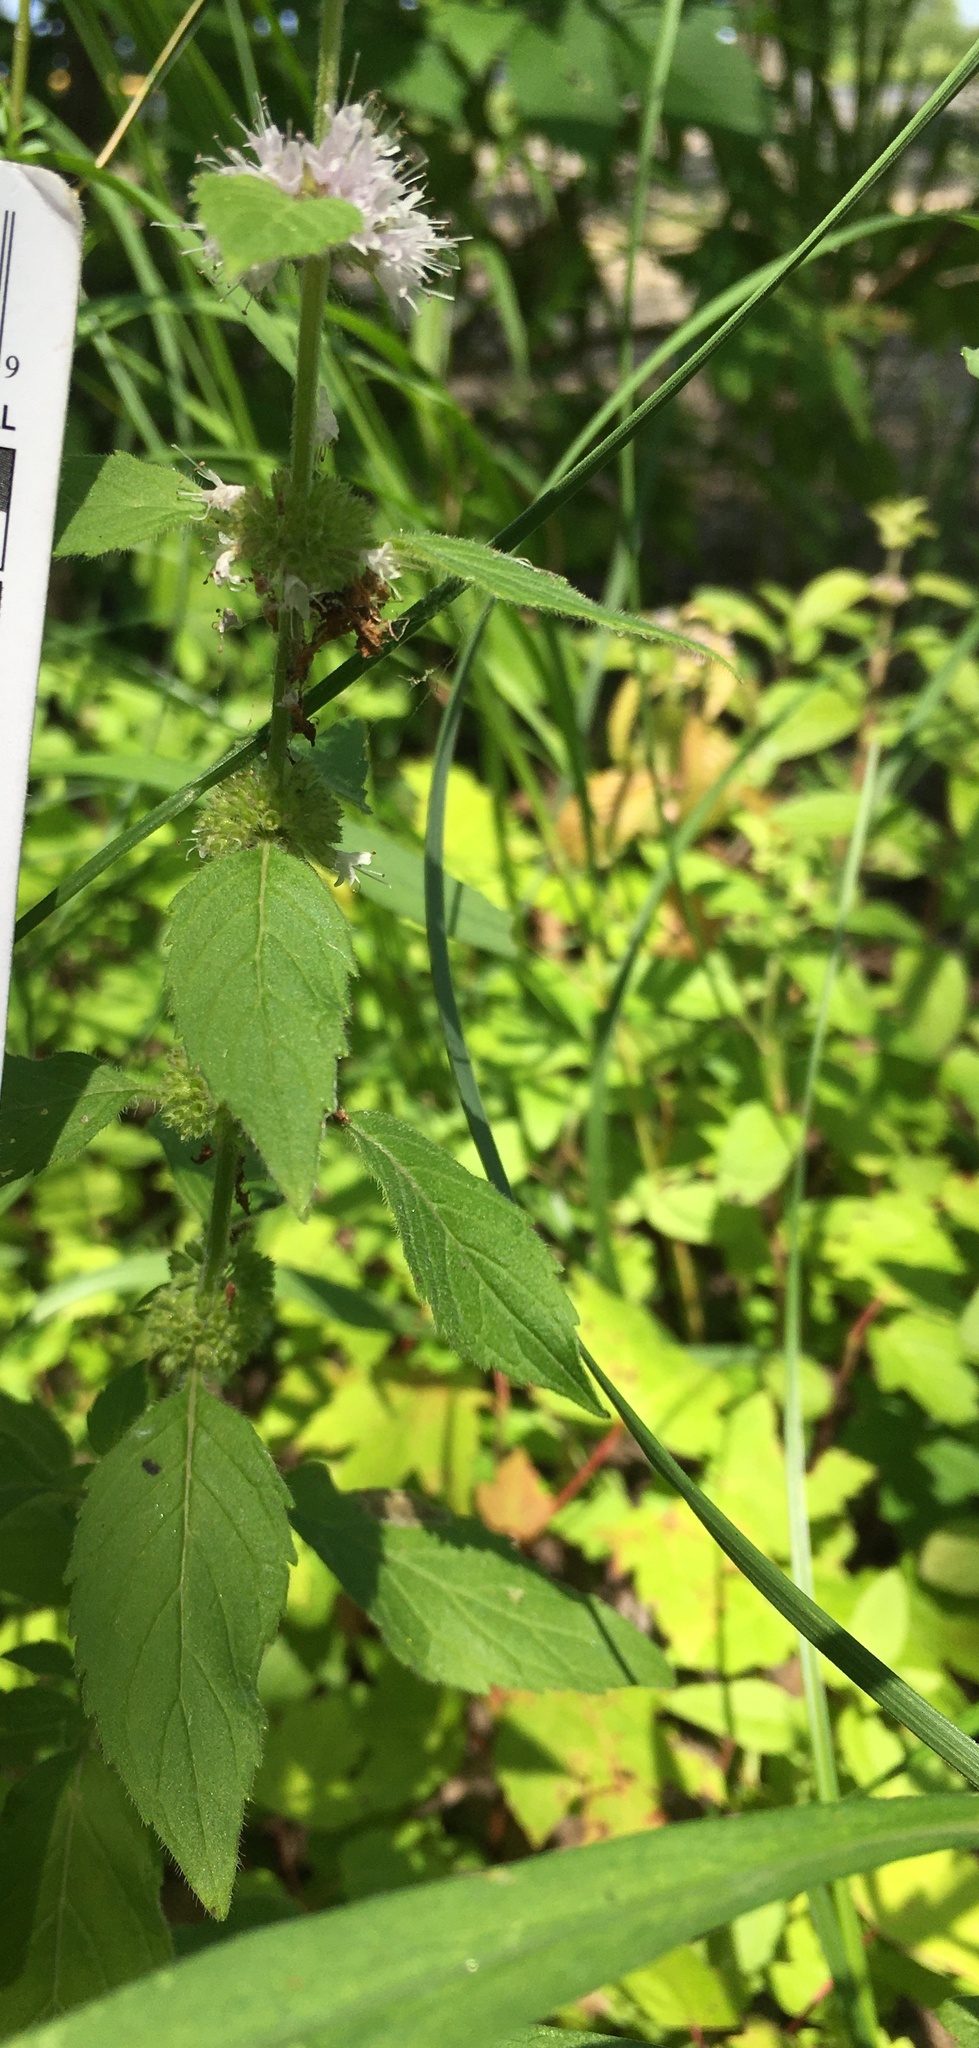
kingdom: Plantae
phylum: Tracheophyta
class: Magnoliopsida
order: Lamiales
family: Lamiaceae
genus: Mentha
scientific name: Mentha canadensis
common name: American corn mint
